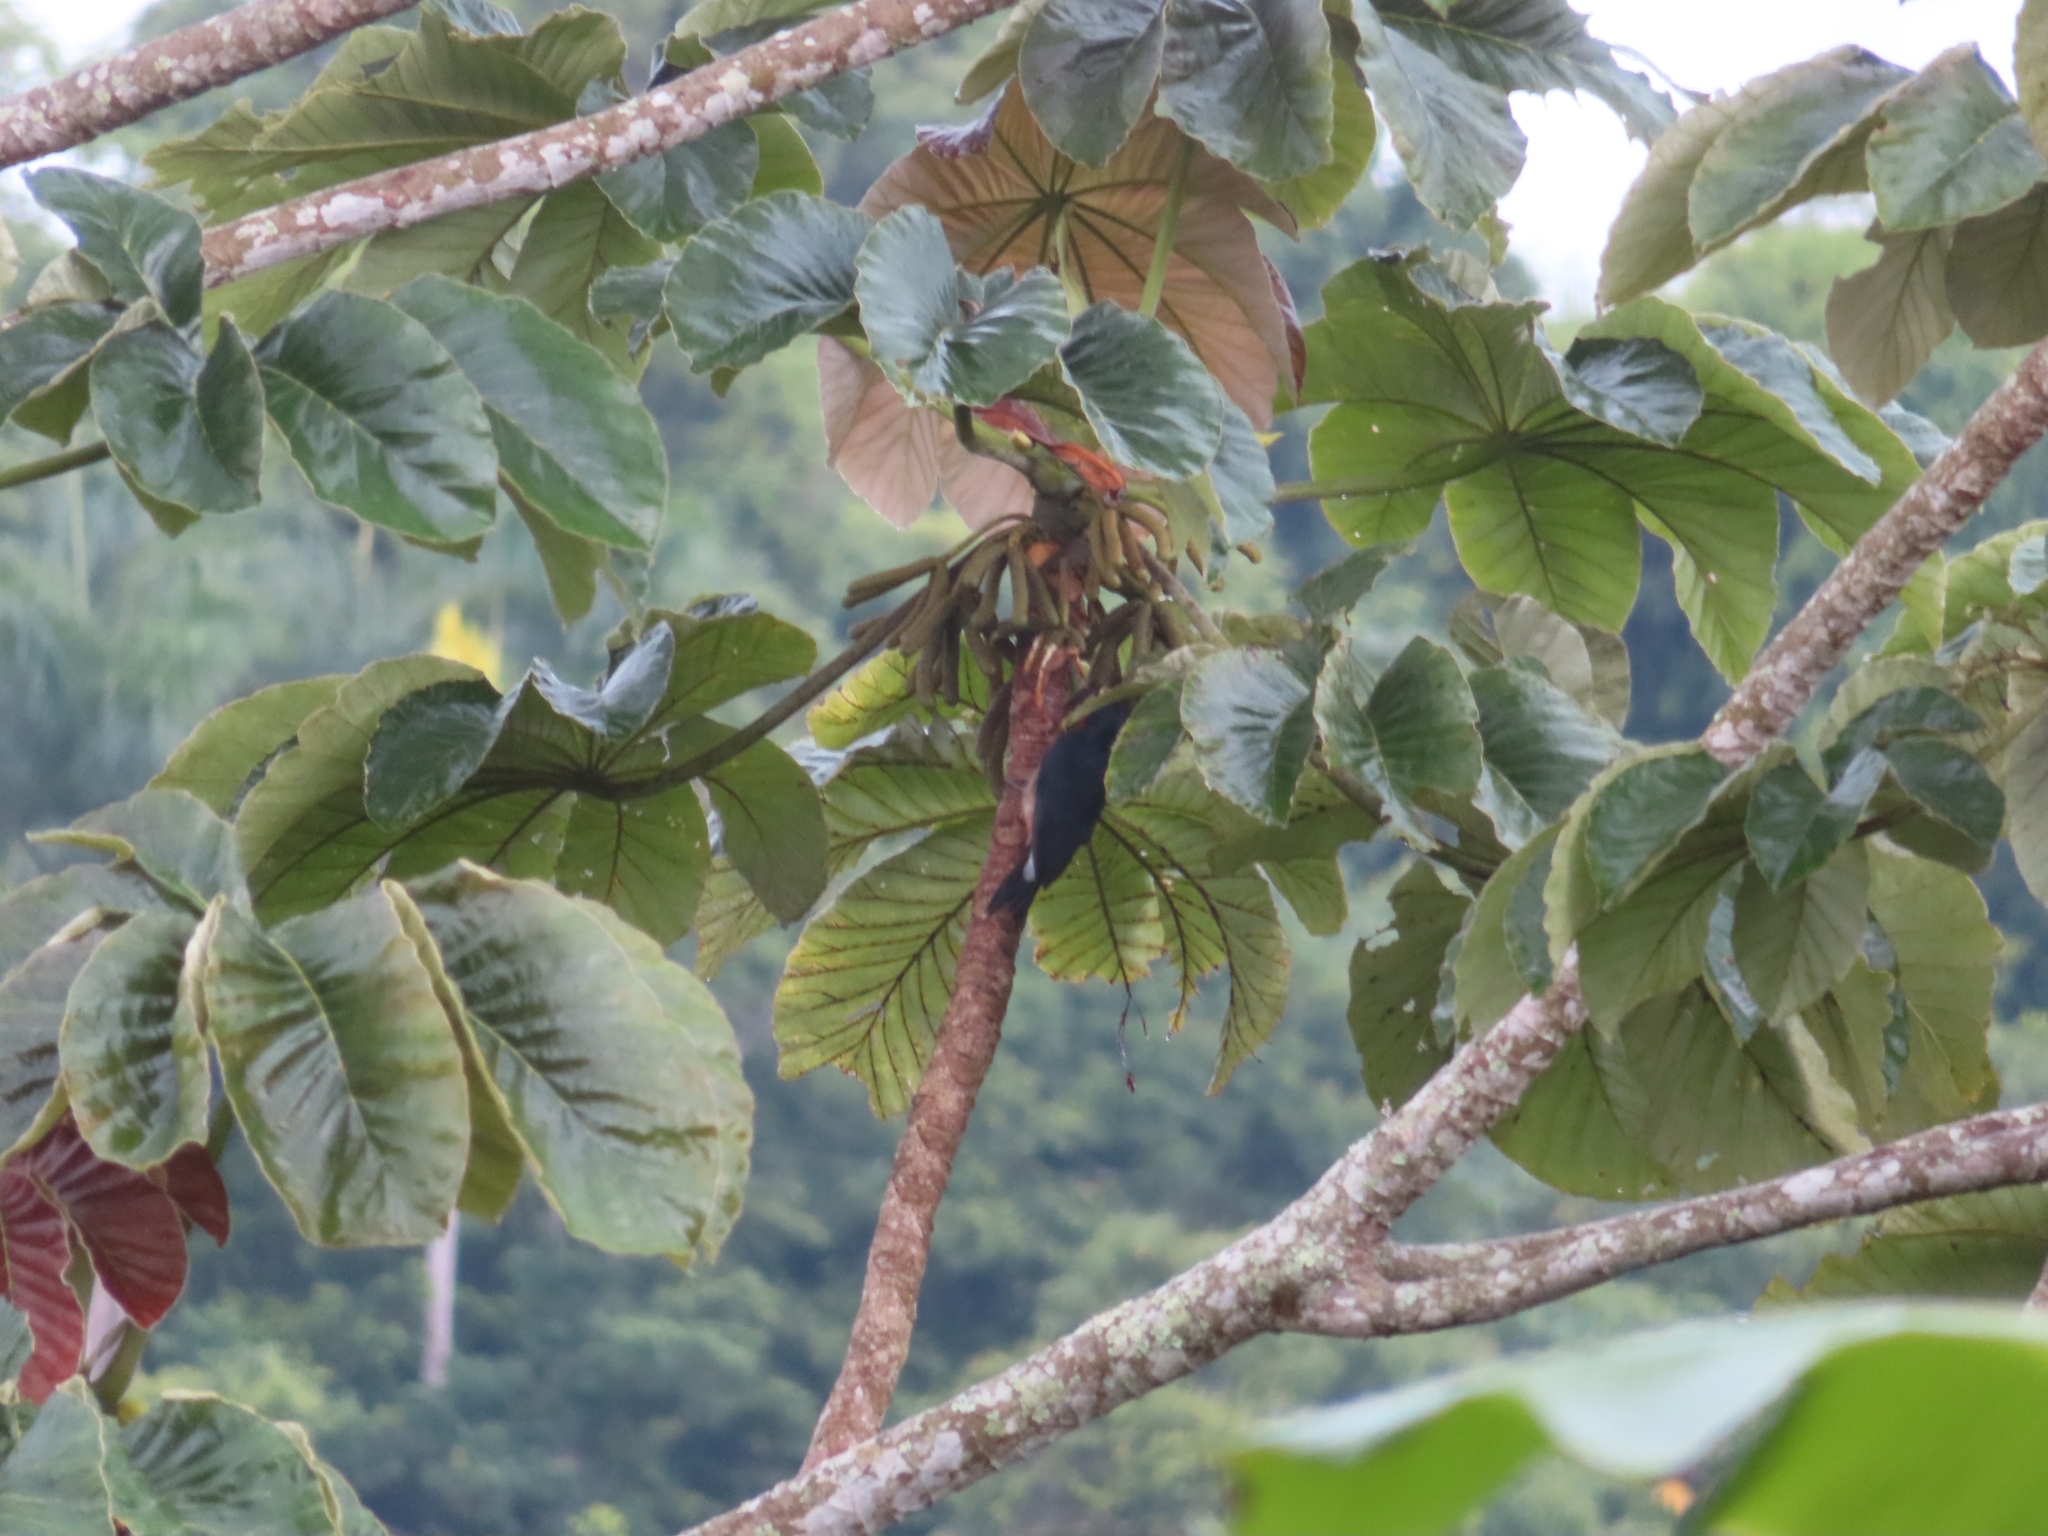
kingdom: Animalia
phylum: Chordata
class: Aves
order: Piciformes
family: Picidae
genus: Melanerpes
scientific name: Melanerpes portoricensis
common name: Puerto rican woodpecker
